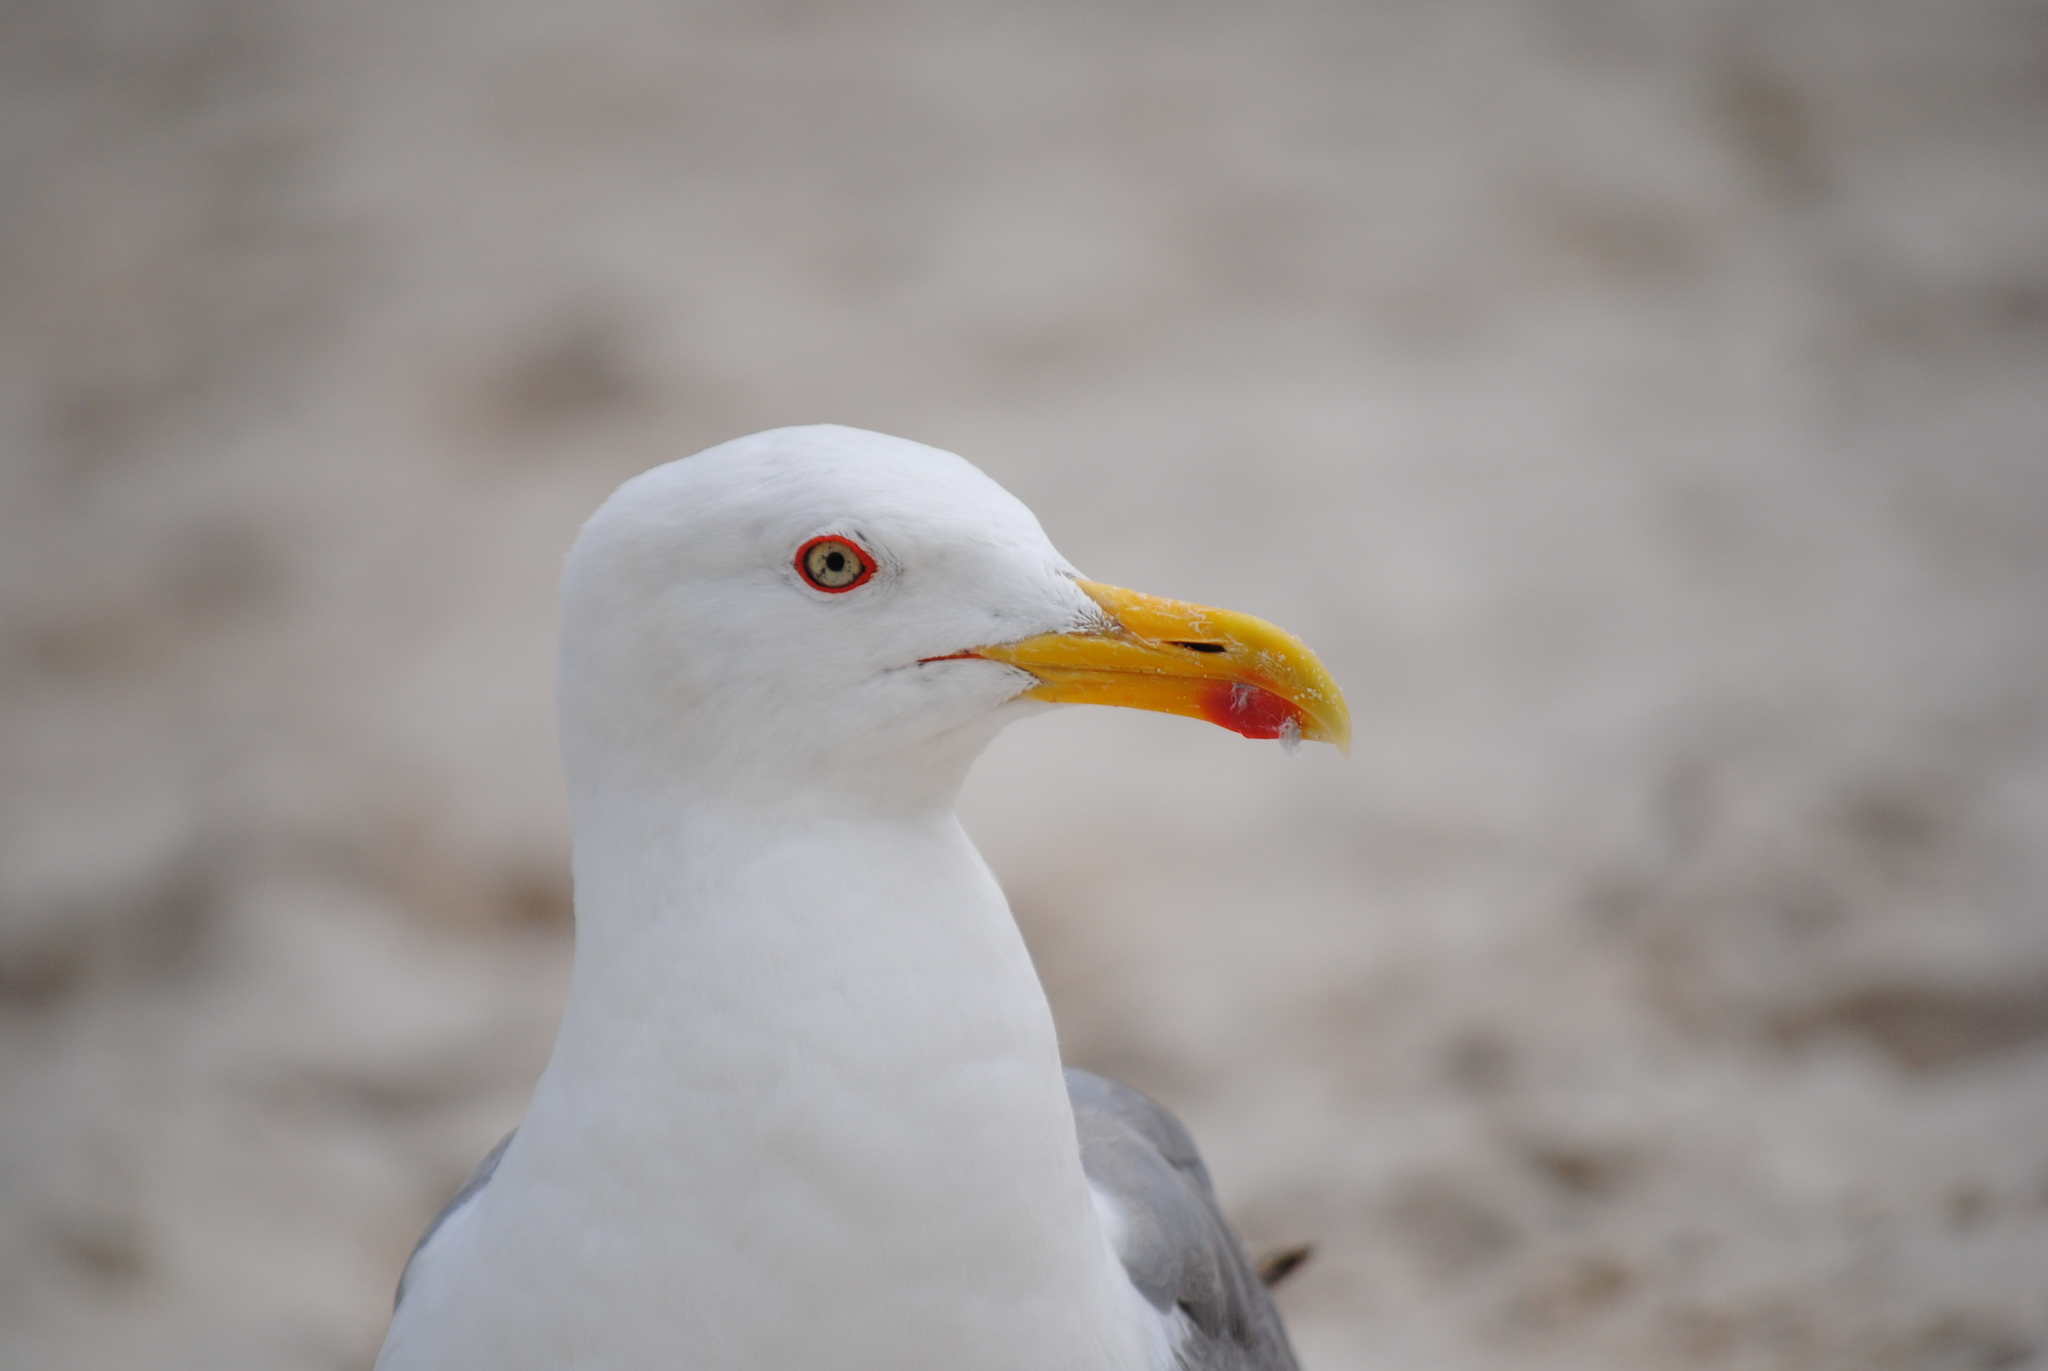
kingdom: Animalia
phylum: Chordata
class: Aves
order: Charadriiformes
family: Laridae
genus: Larus
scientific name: Larus michahellis
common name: Yellow-legged gull
